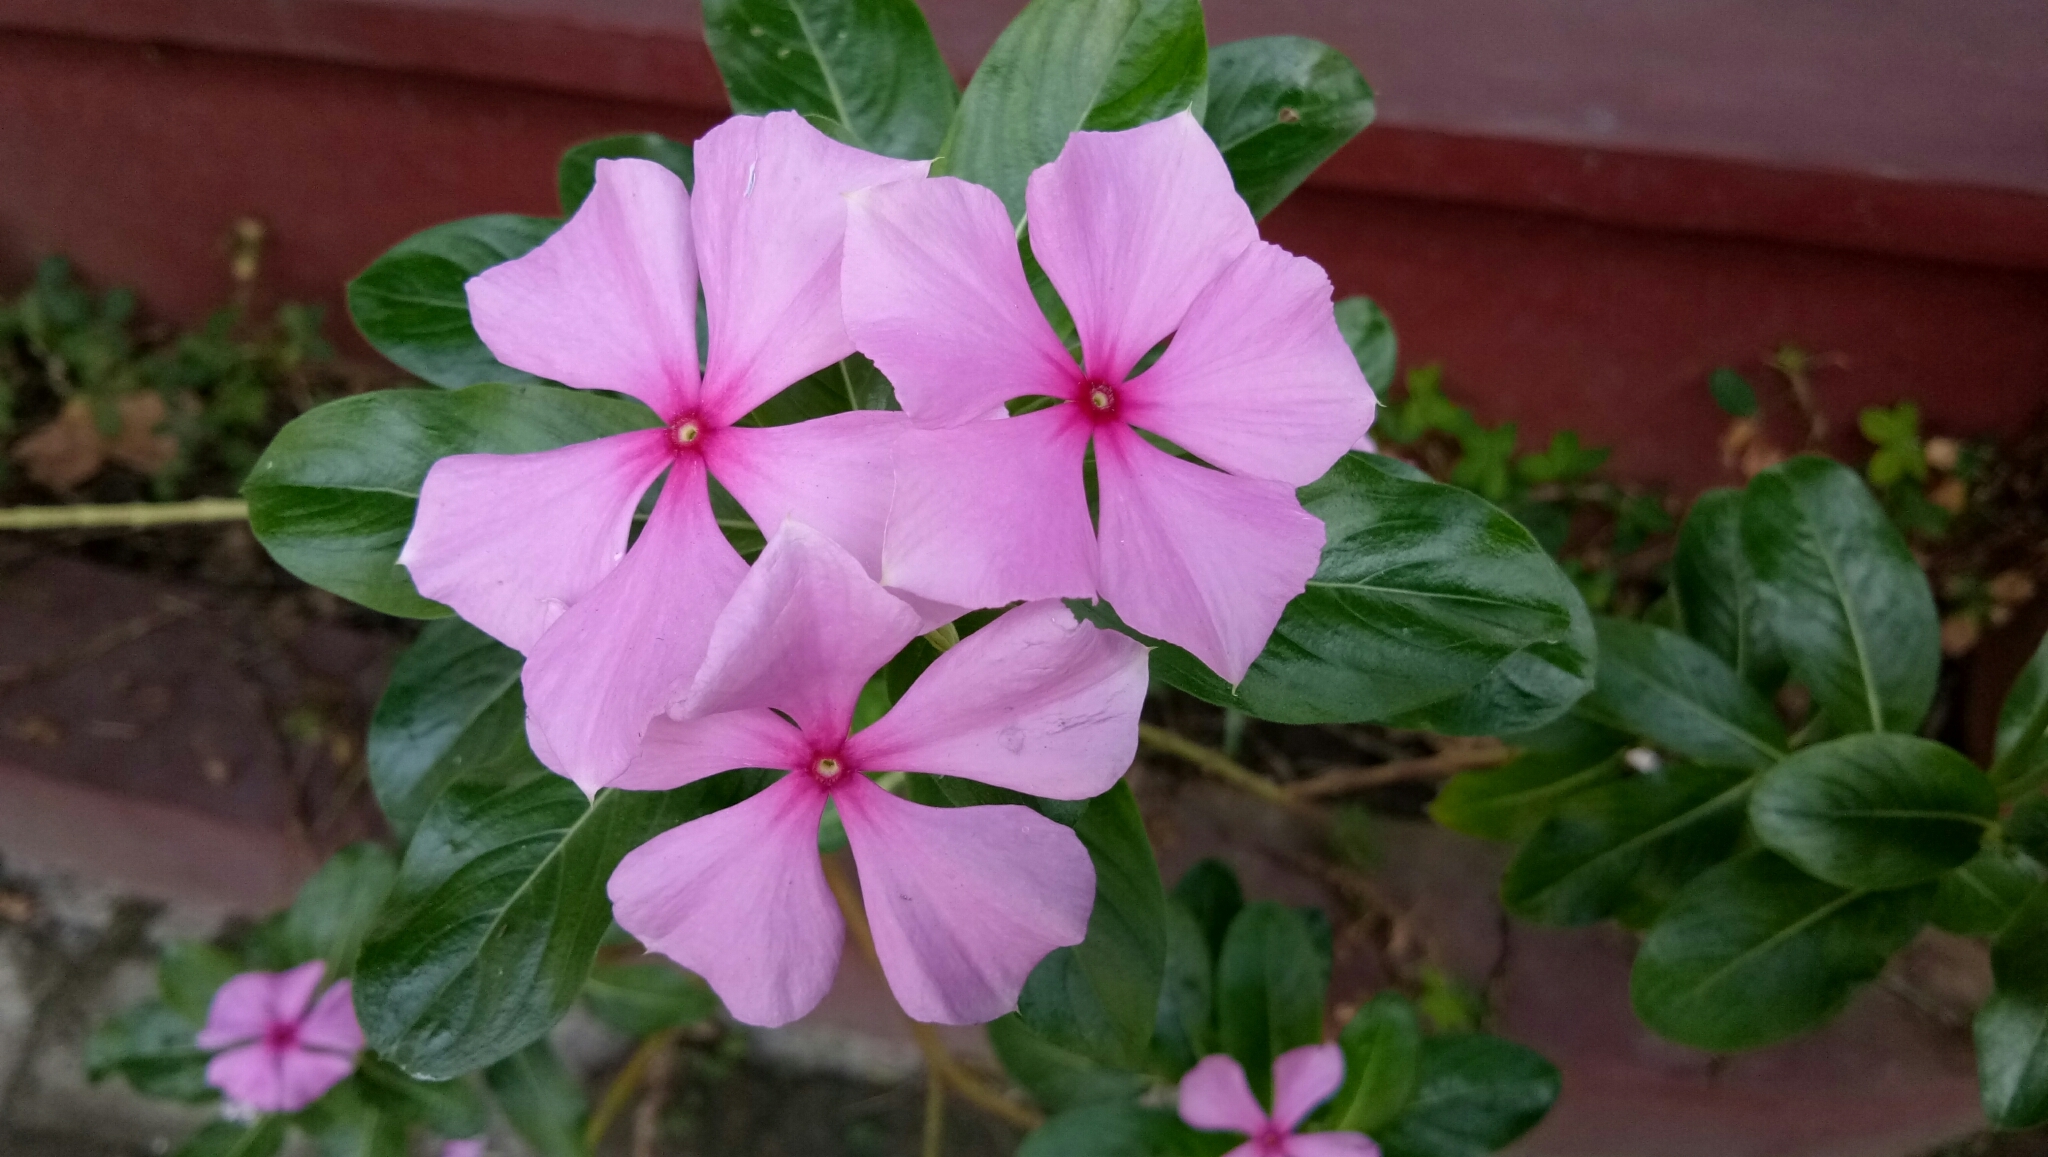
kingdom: Plantae
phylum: Tracheophyta
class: Magnoliopsida
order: Gentianales
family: Apocynaceae
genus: Catharanthus
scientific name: Catharanthus roseus
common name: Madagascar periwinkle
